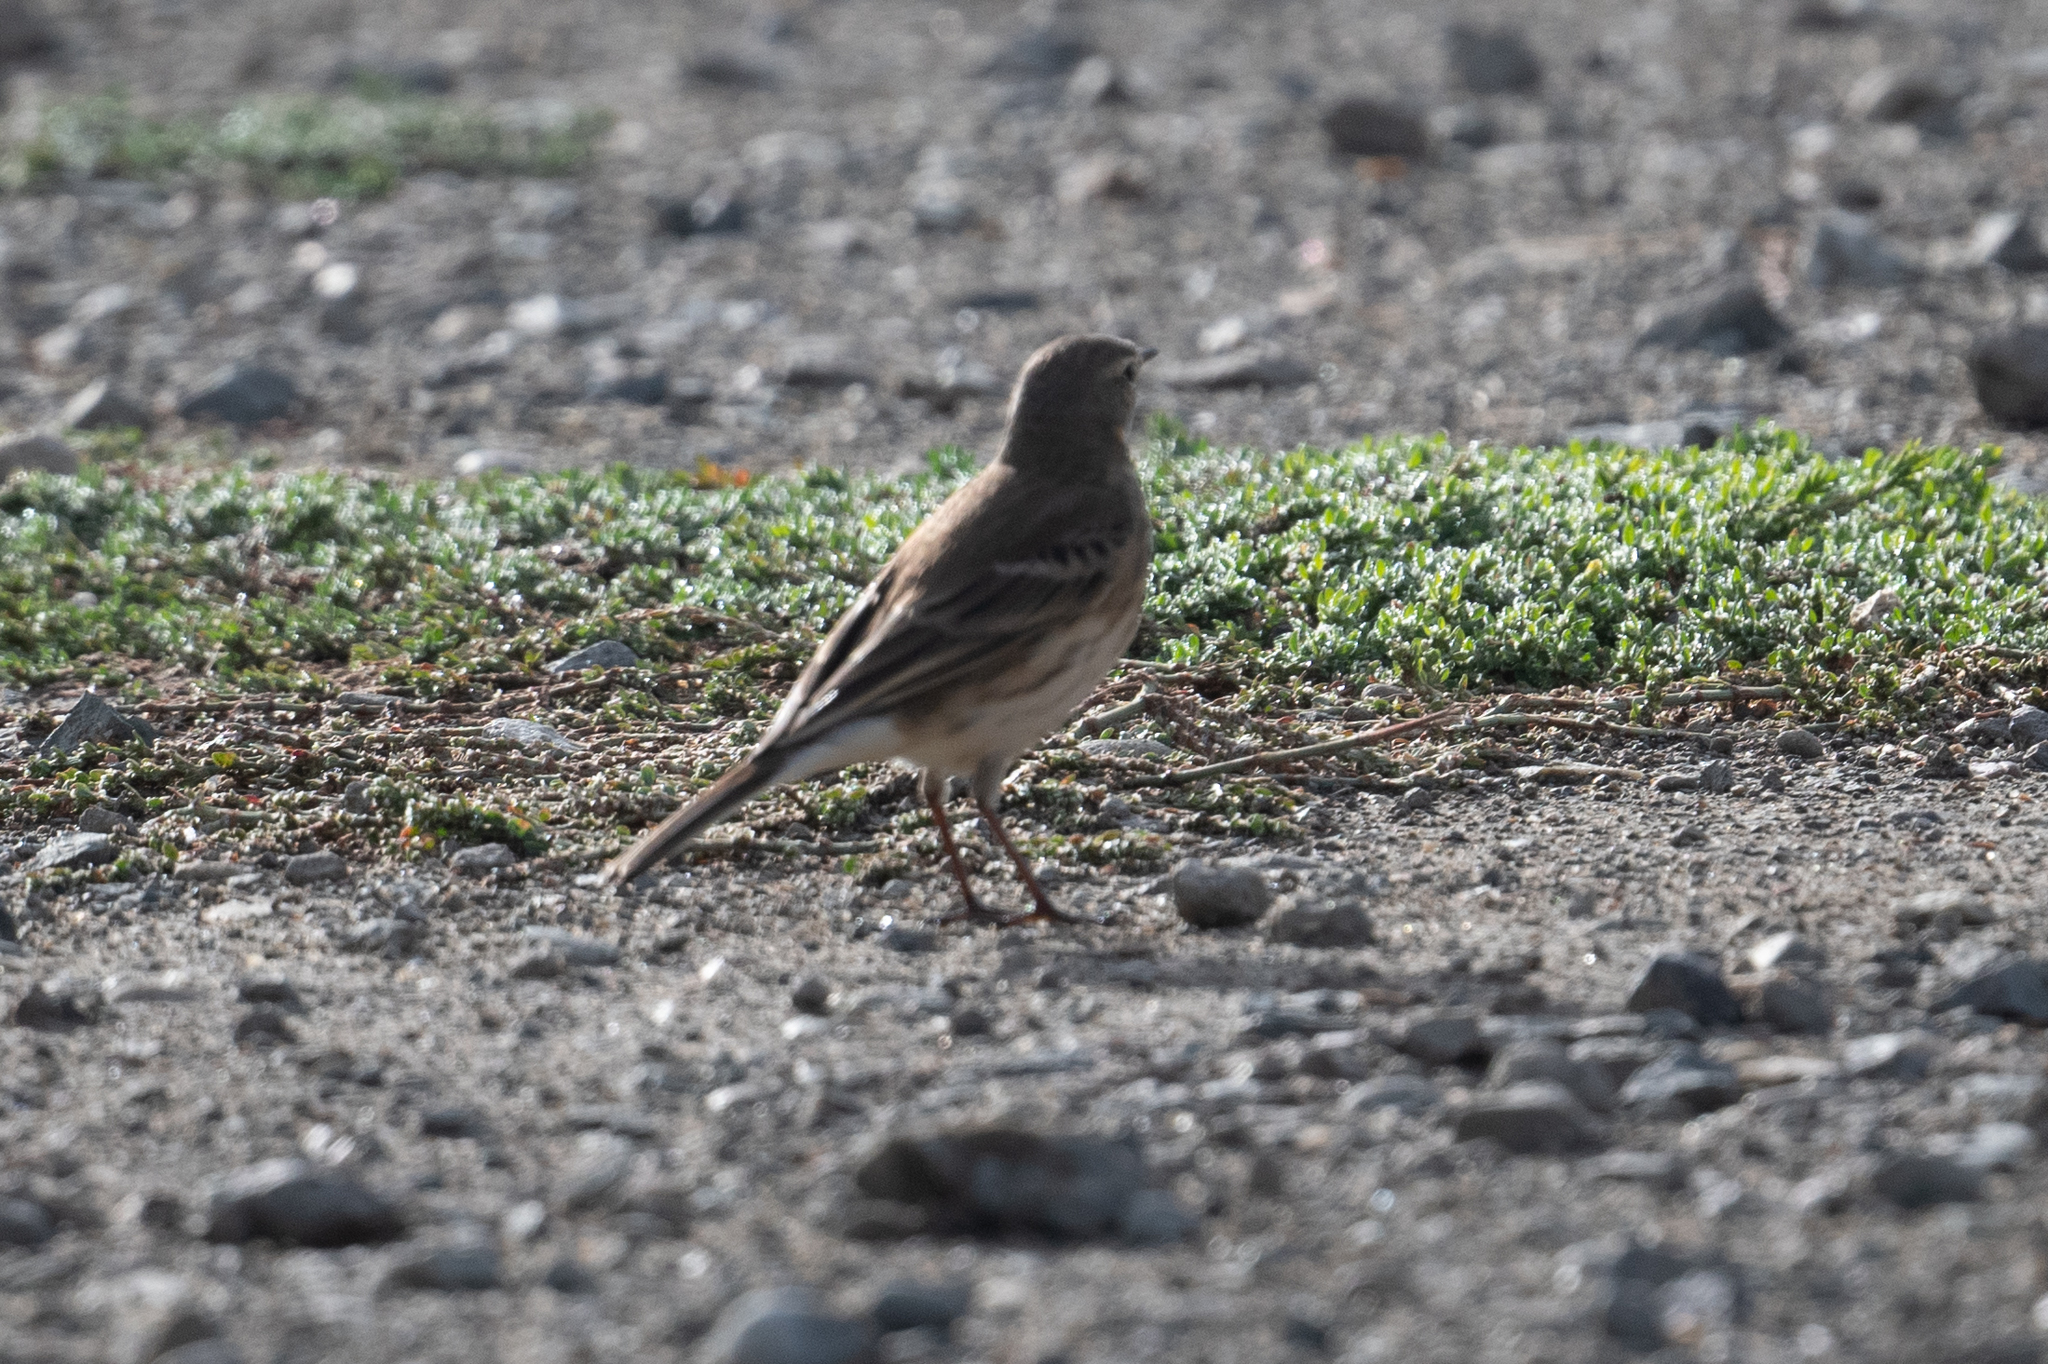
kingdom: Animalia
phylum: Chordata
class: Aves
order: Passeriformes
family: Motacillidae
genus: Anthus
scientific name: Anthus rubescens
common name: Buff-bellied pipit
